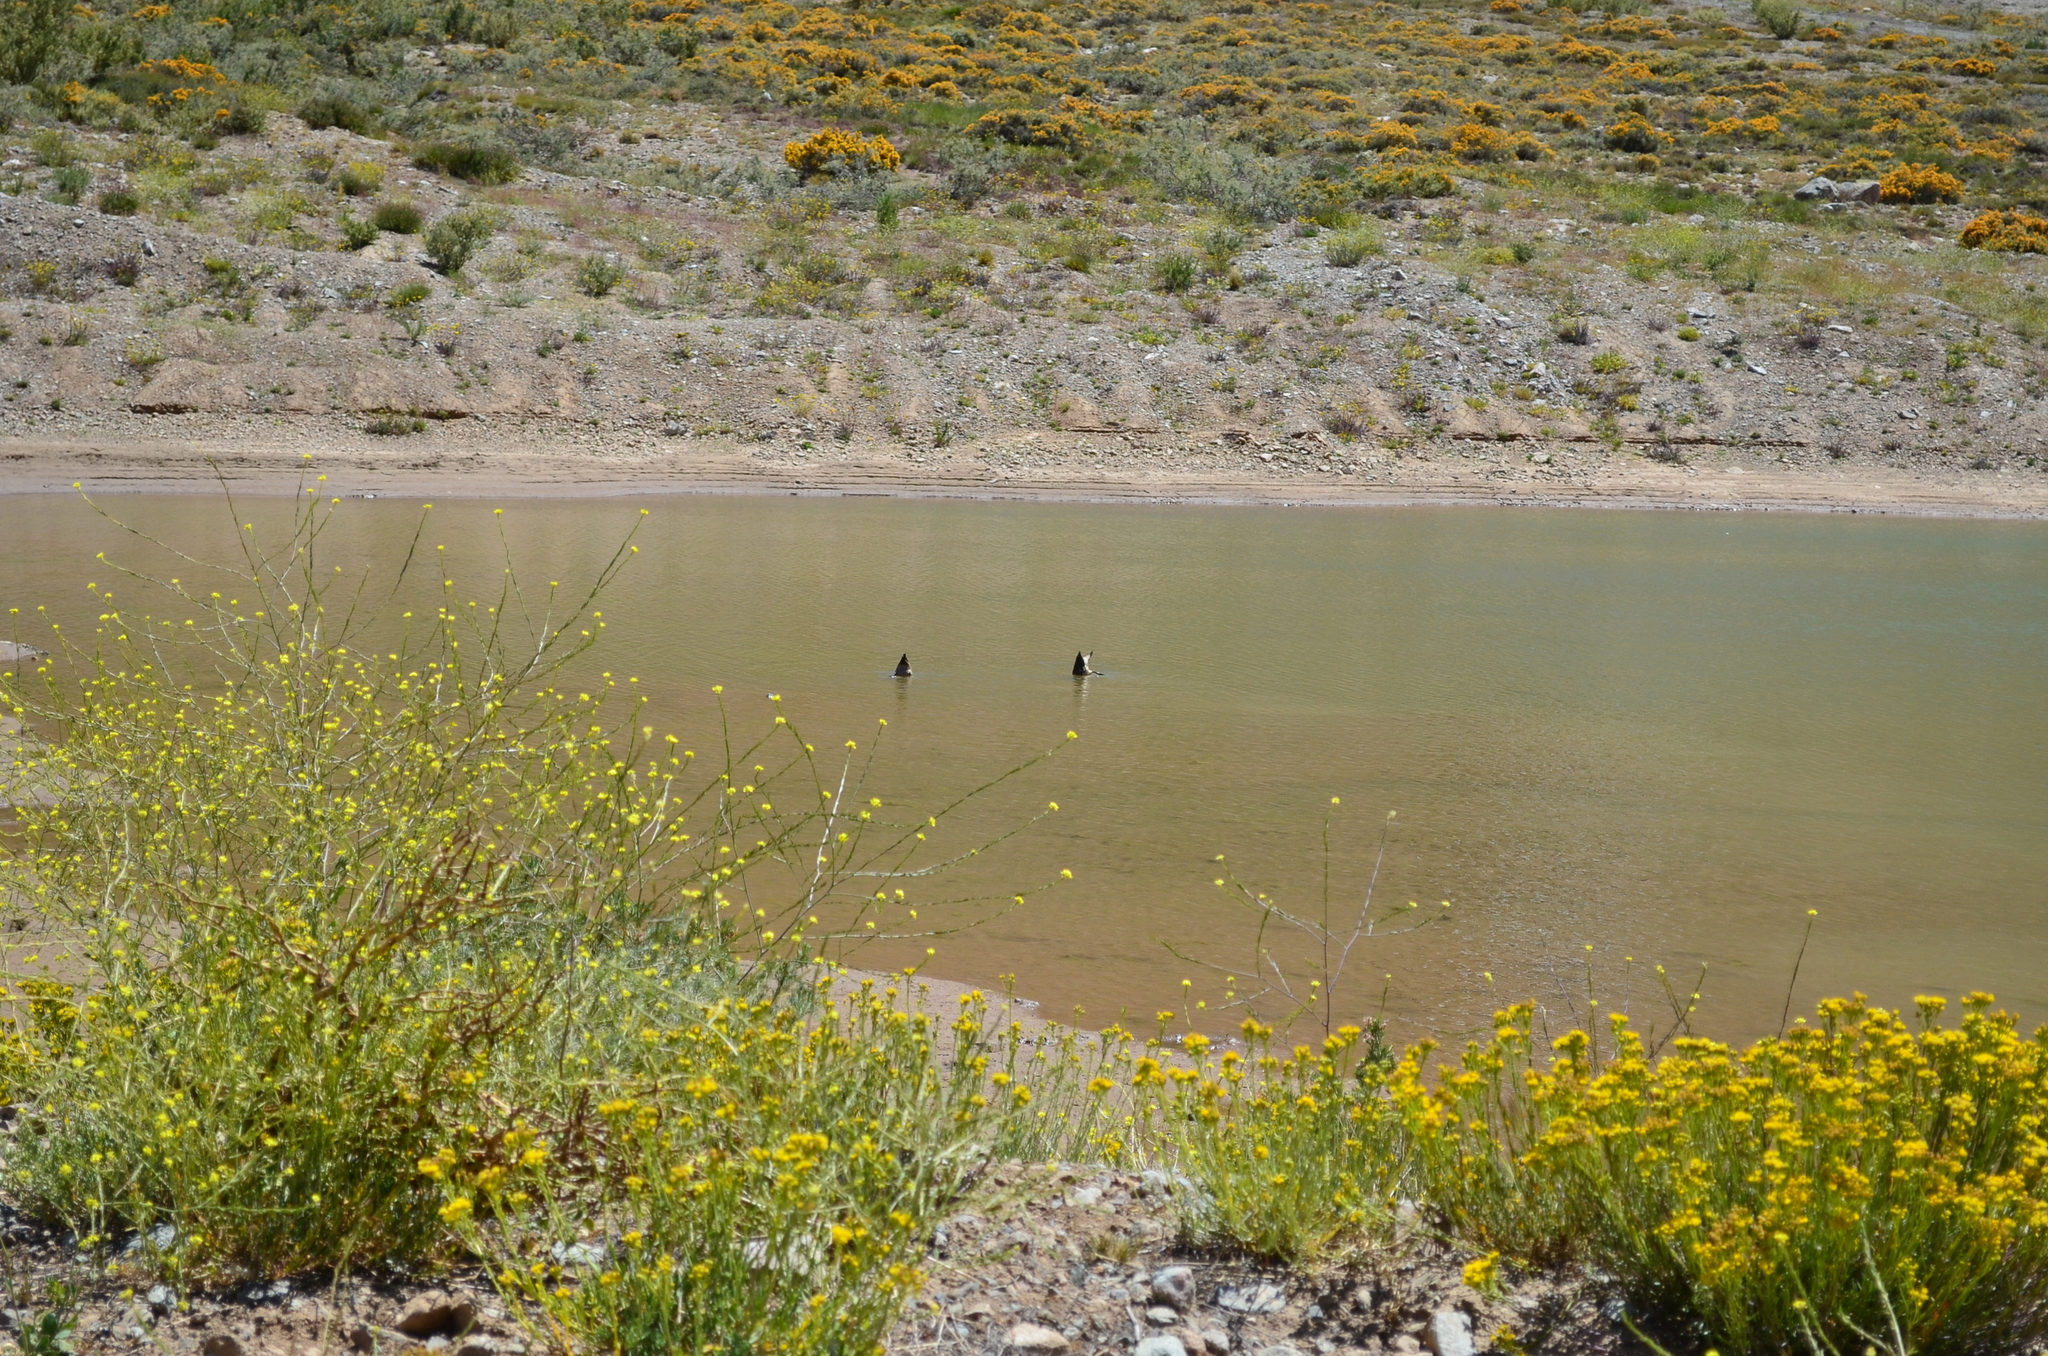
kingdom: Animalia
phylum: Chordata
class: Aves
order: Anseriformes
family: Anatidae
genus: Lophonetta
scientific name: Lophonetta specularioides
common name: Crested duck
